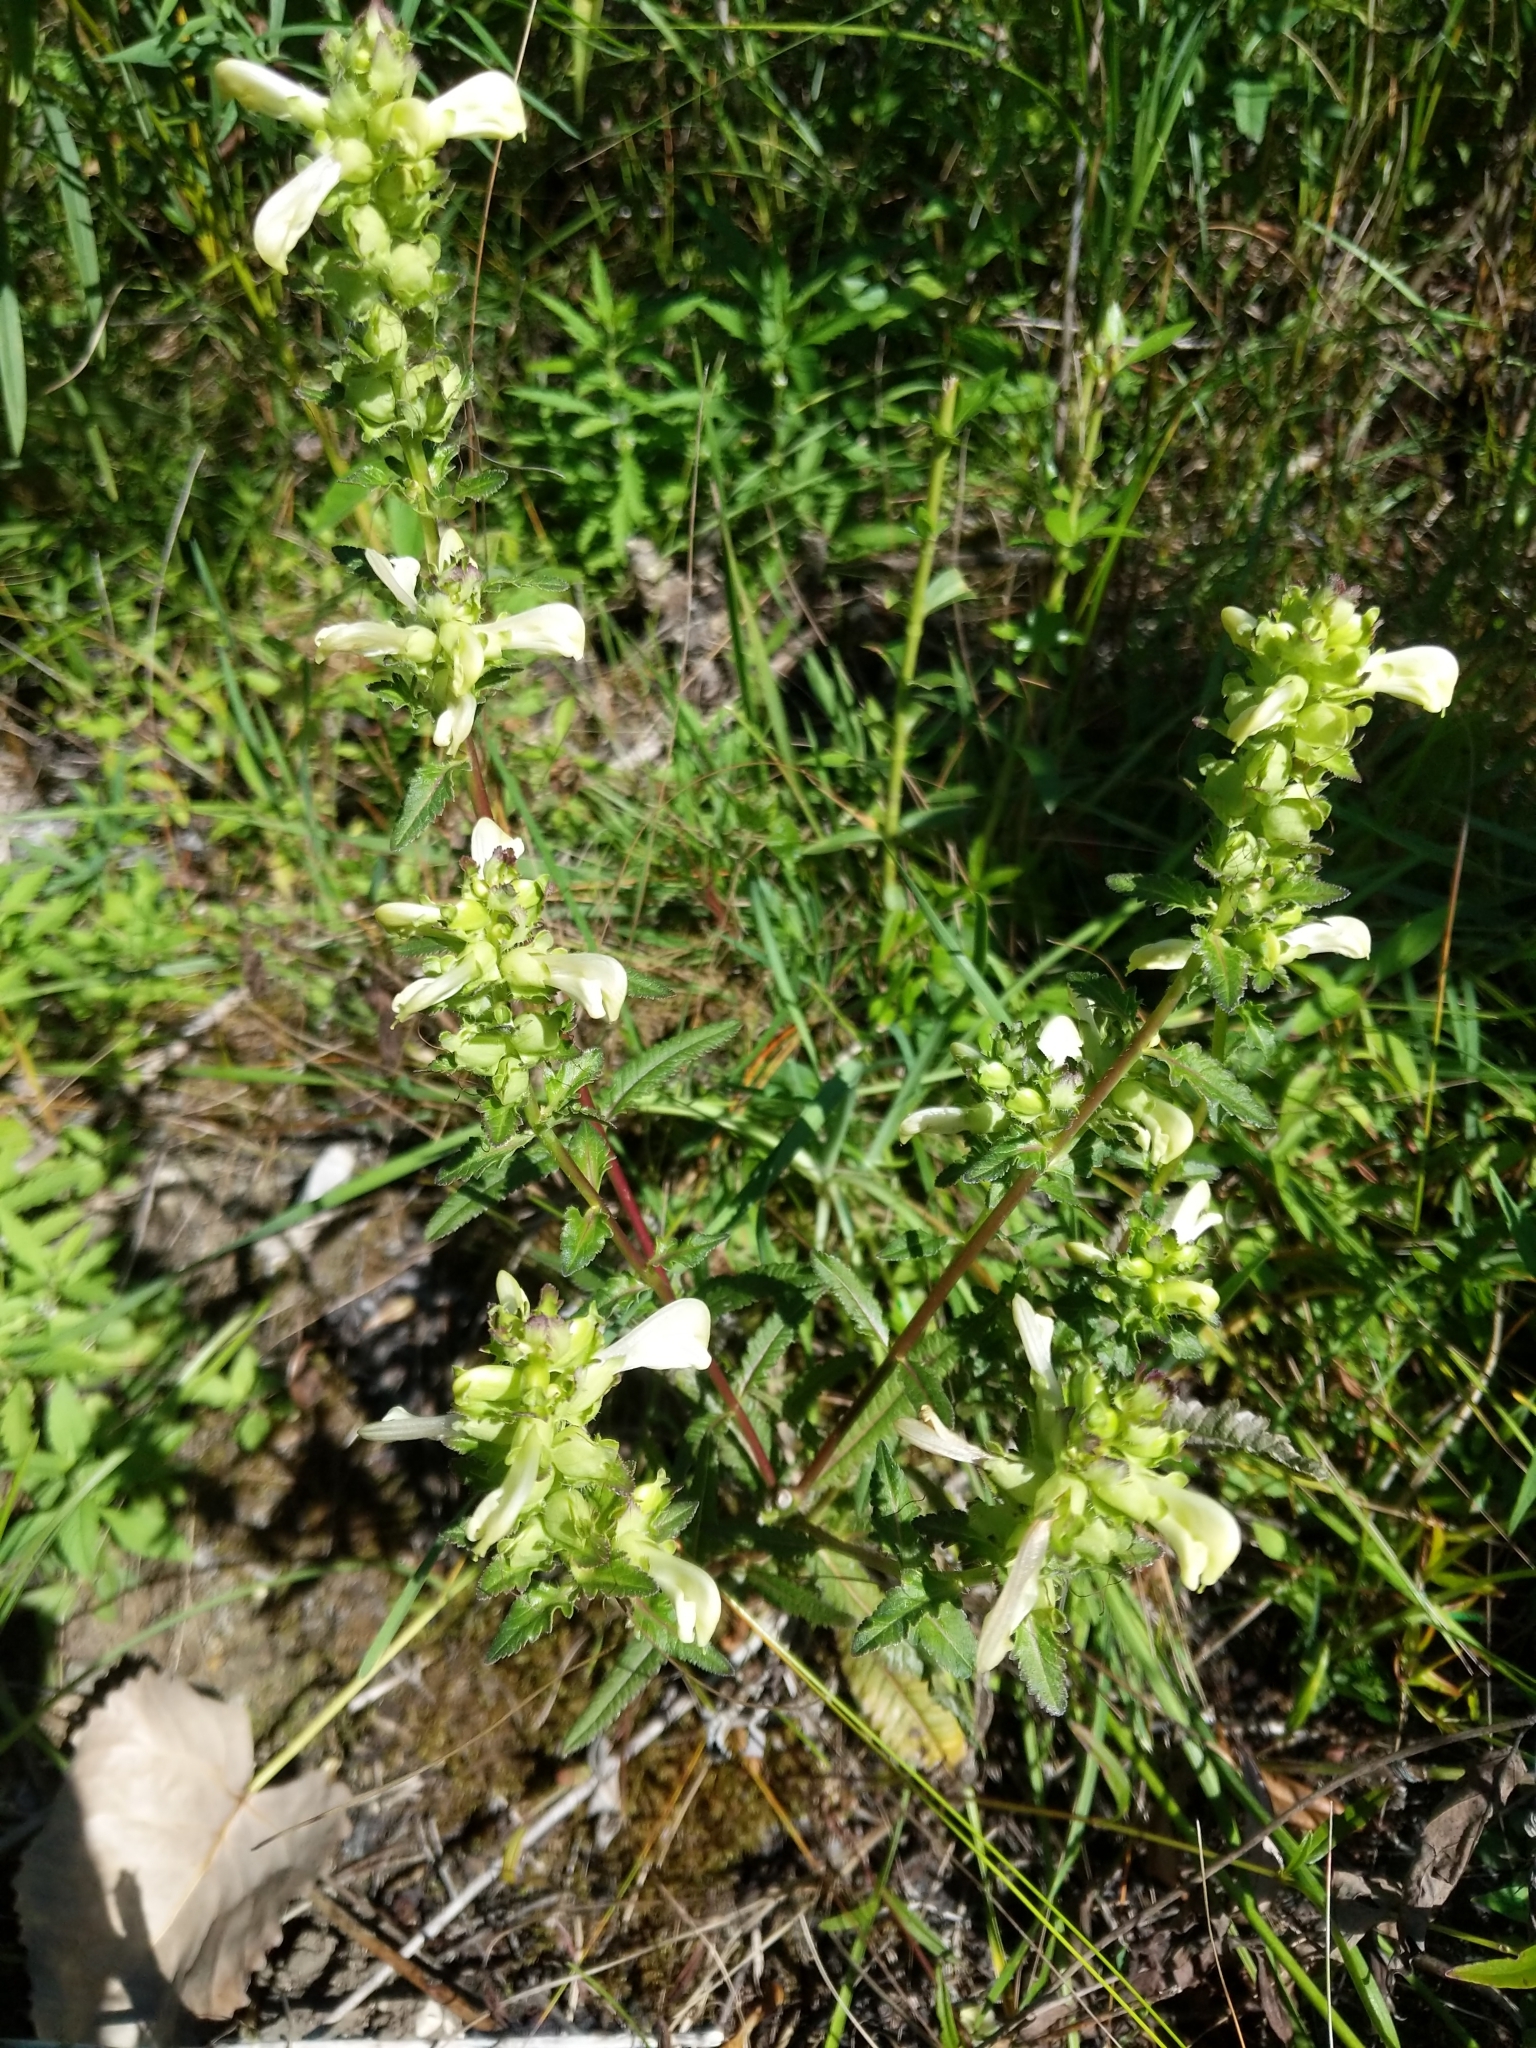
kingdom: Plantae
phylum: Tracheophyta
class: Magnoliopsida
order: Lamiales
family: Orobanchaceae
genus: Pedicularis
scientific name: Pedicularis lanceolata
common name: Swamp lousewort
